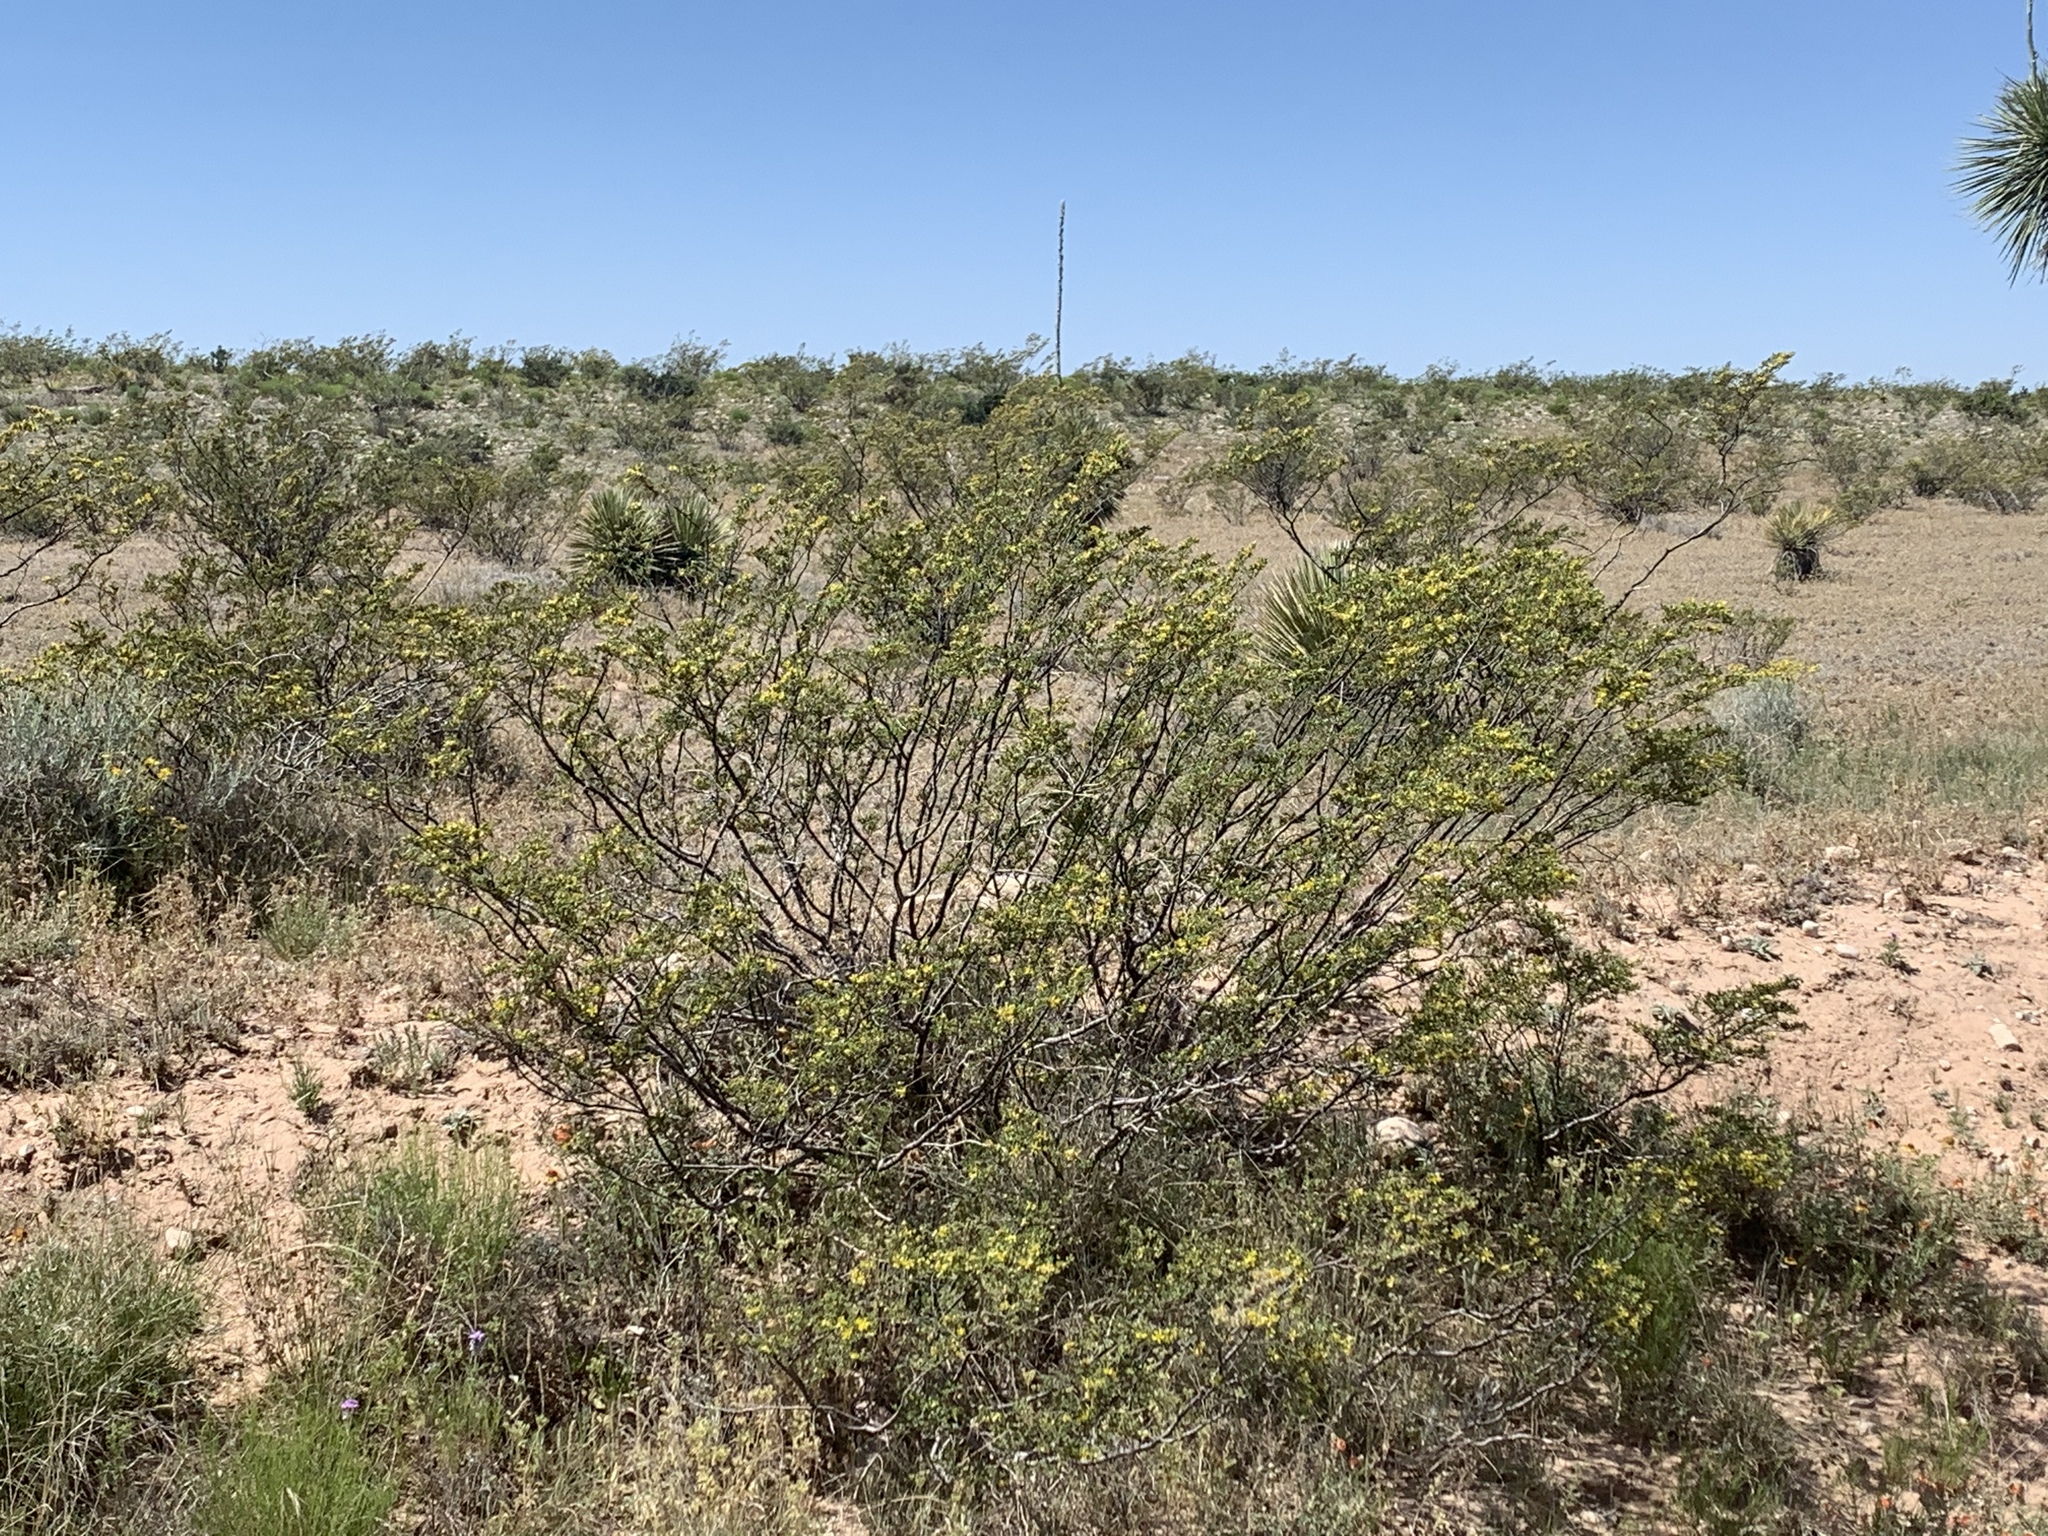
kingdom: Plantae
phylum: Tracheophyta
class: Magnoliopsida
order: Zygophyllales
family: Zygophyllaceae
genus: Larrea
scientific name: Larrea tridentata
